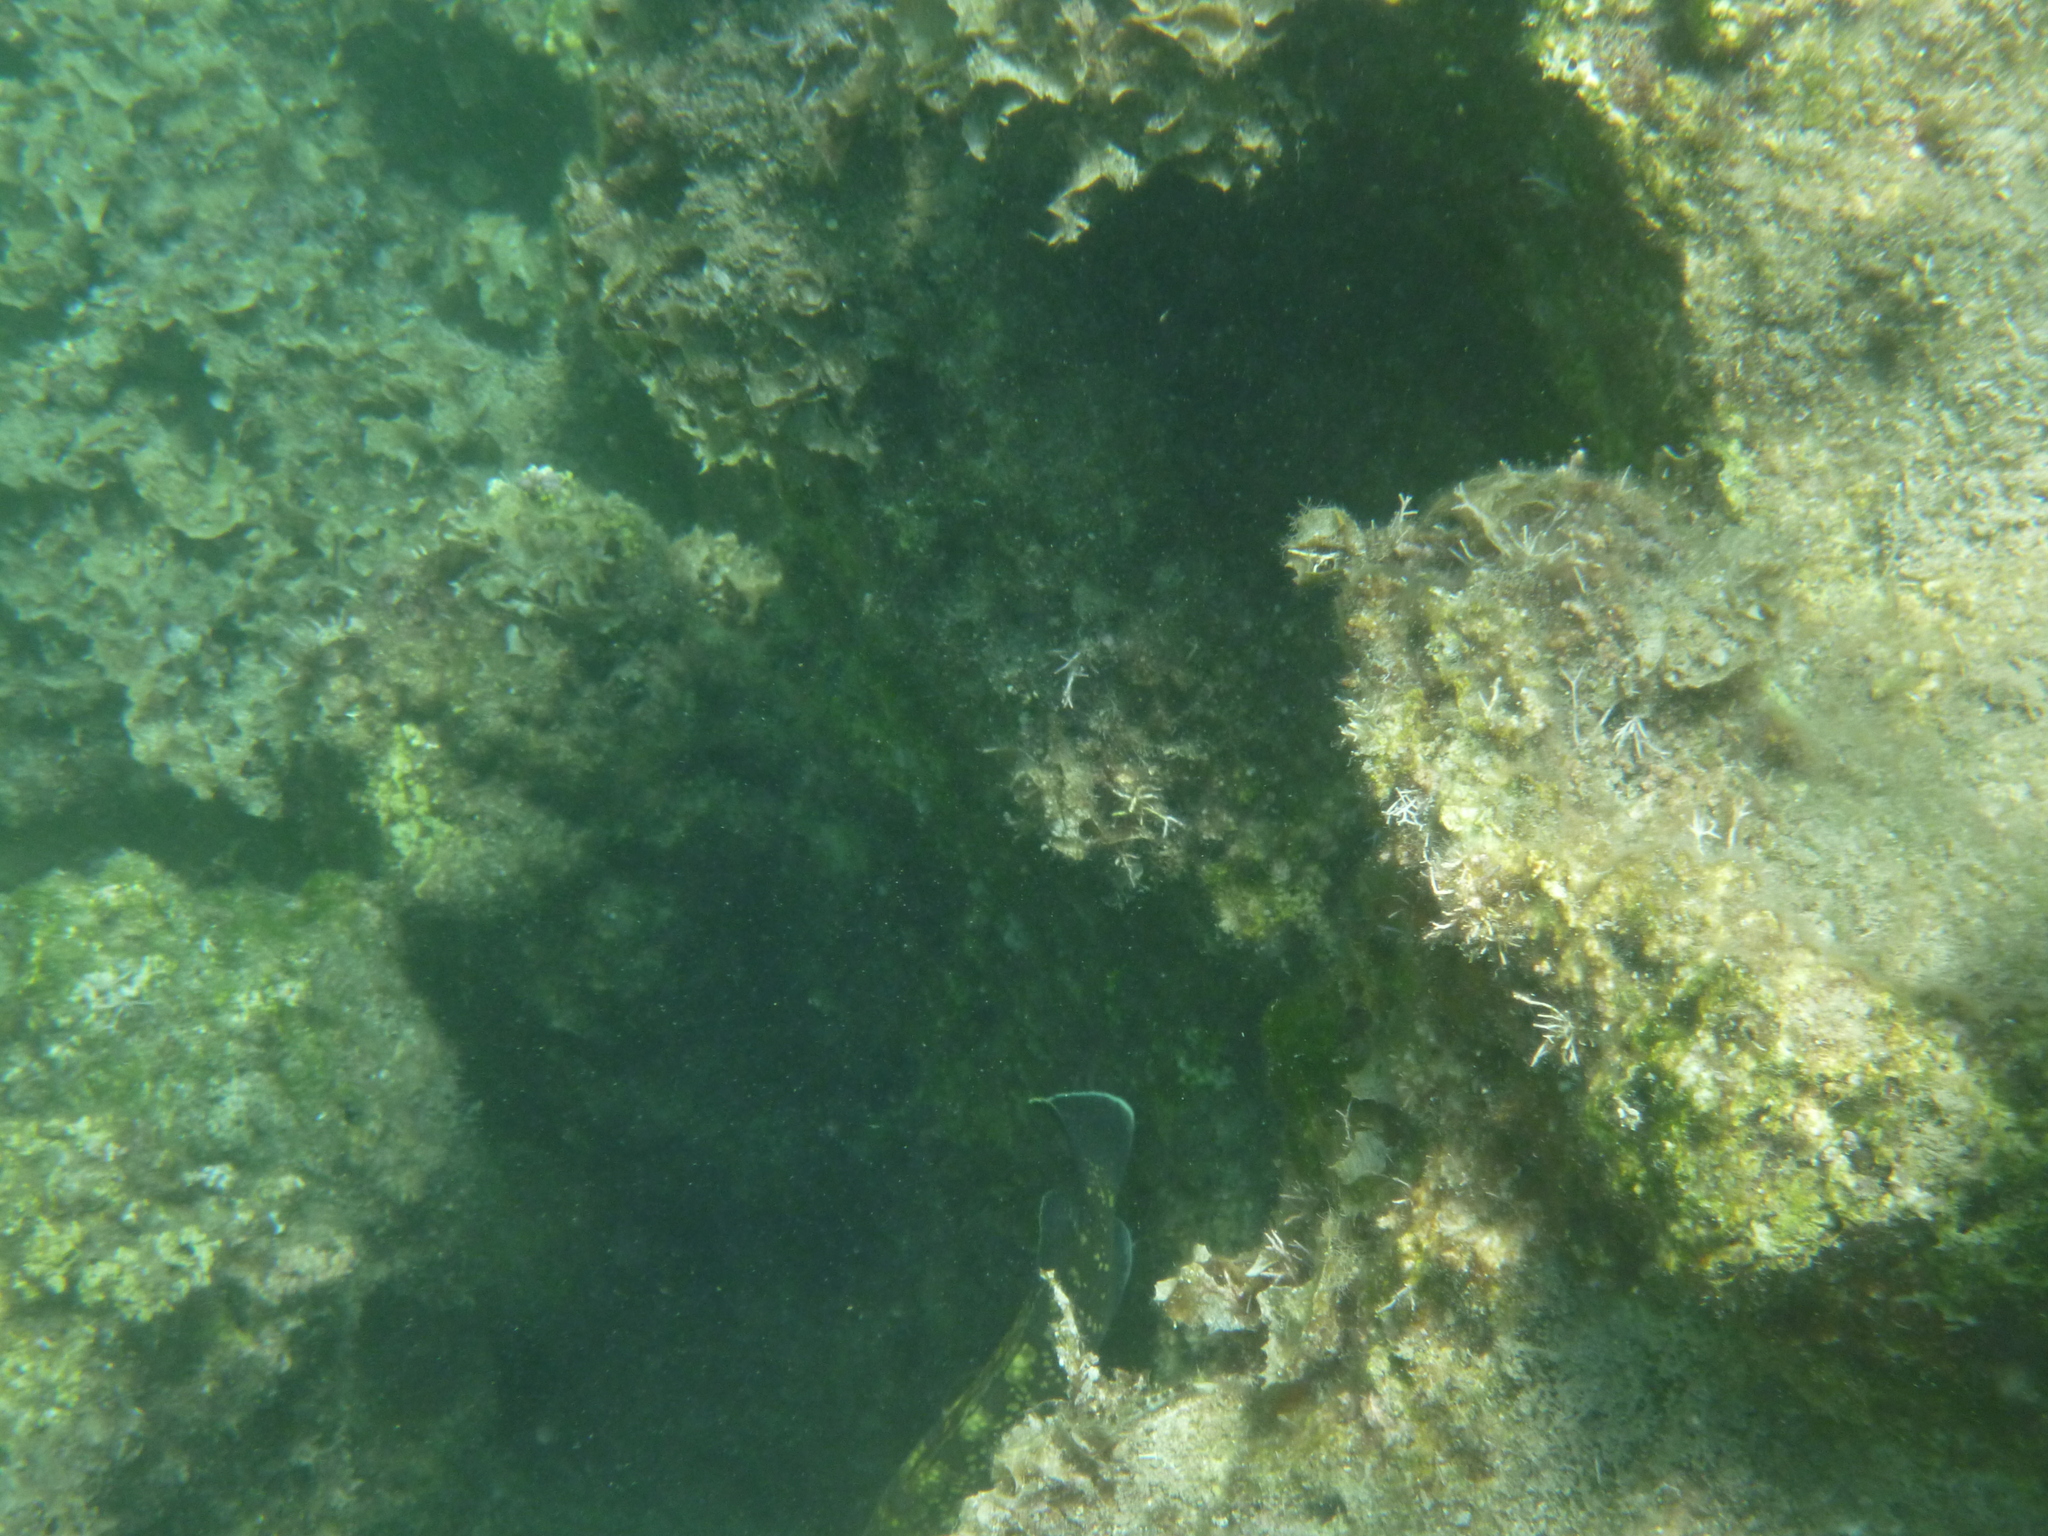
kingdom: Animalia
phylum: Chordata
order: Perciformes
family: Serranidae
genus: Epinephelus
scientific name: Epinephelus marginatus
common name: Dusky grouper
